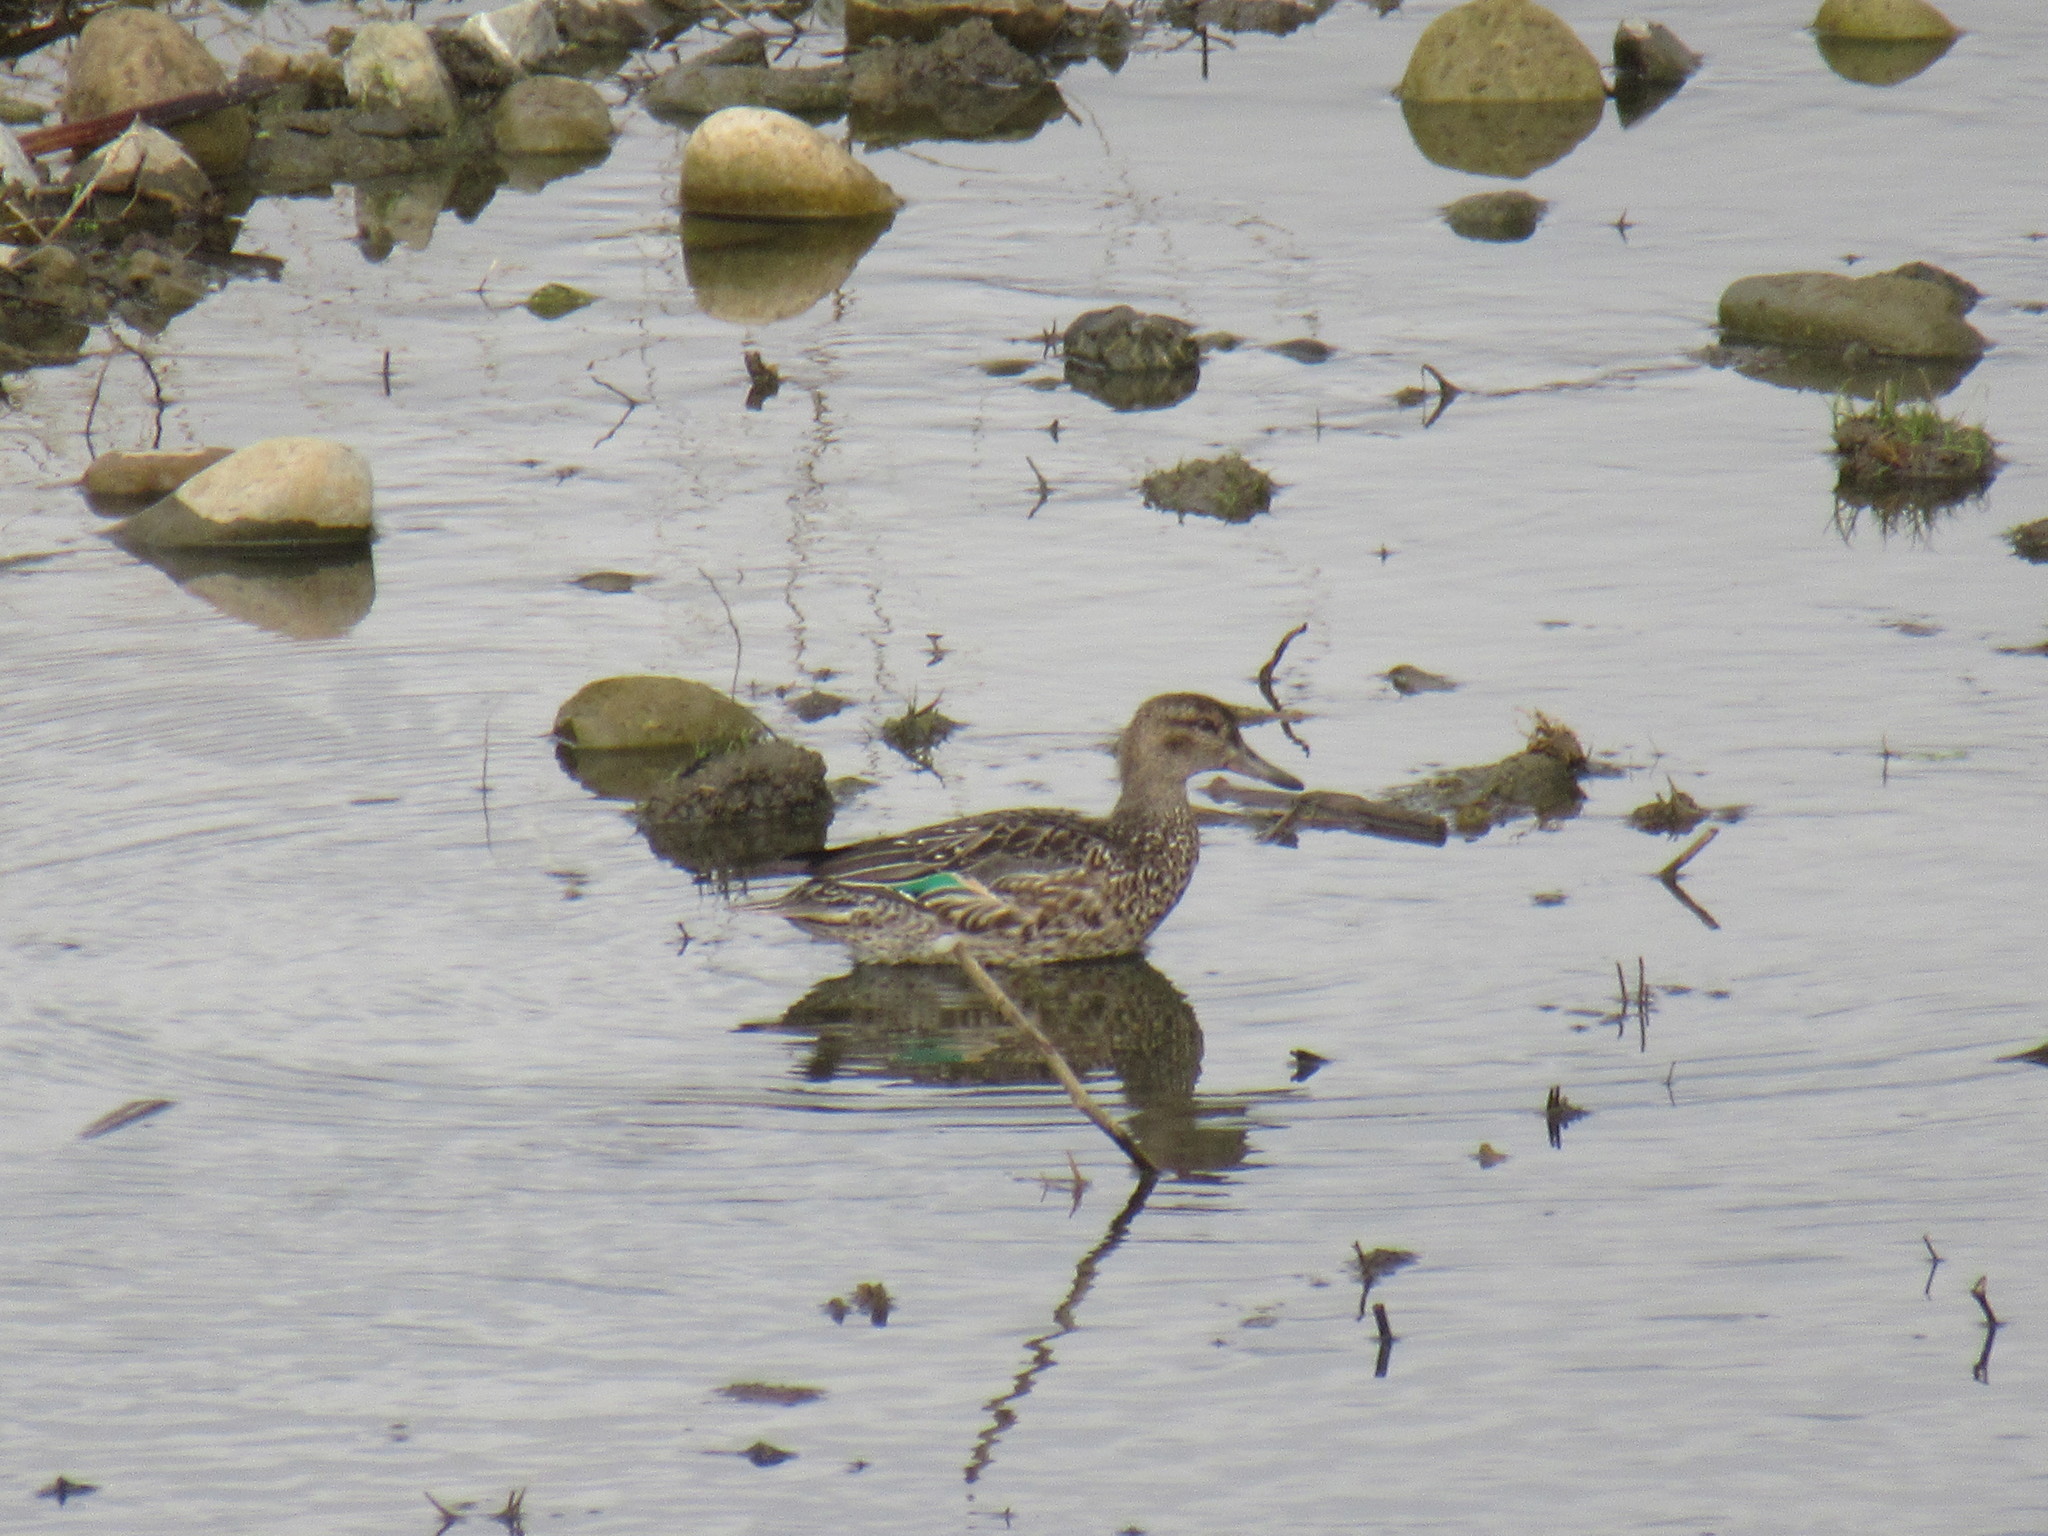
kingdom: Animalia
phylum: Chordata
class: Aves
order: Anseriformes
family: Anatidae
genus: Anas
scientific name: Anas crecca
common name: Eurasian teal
